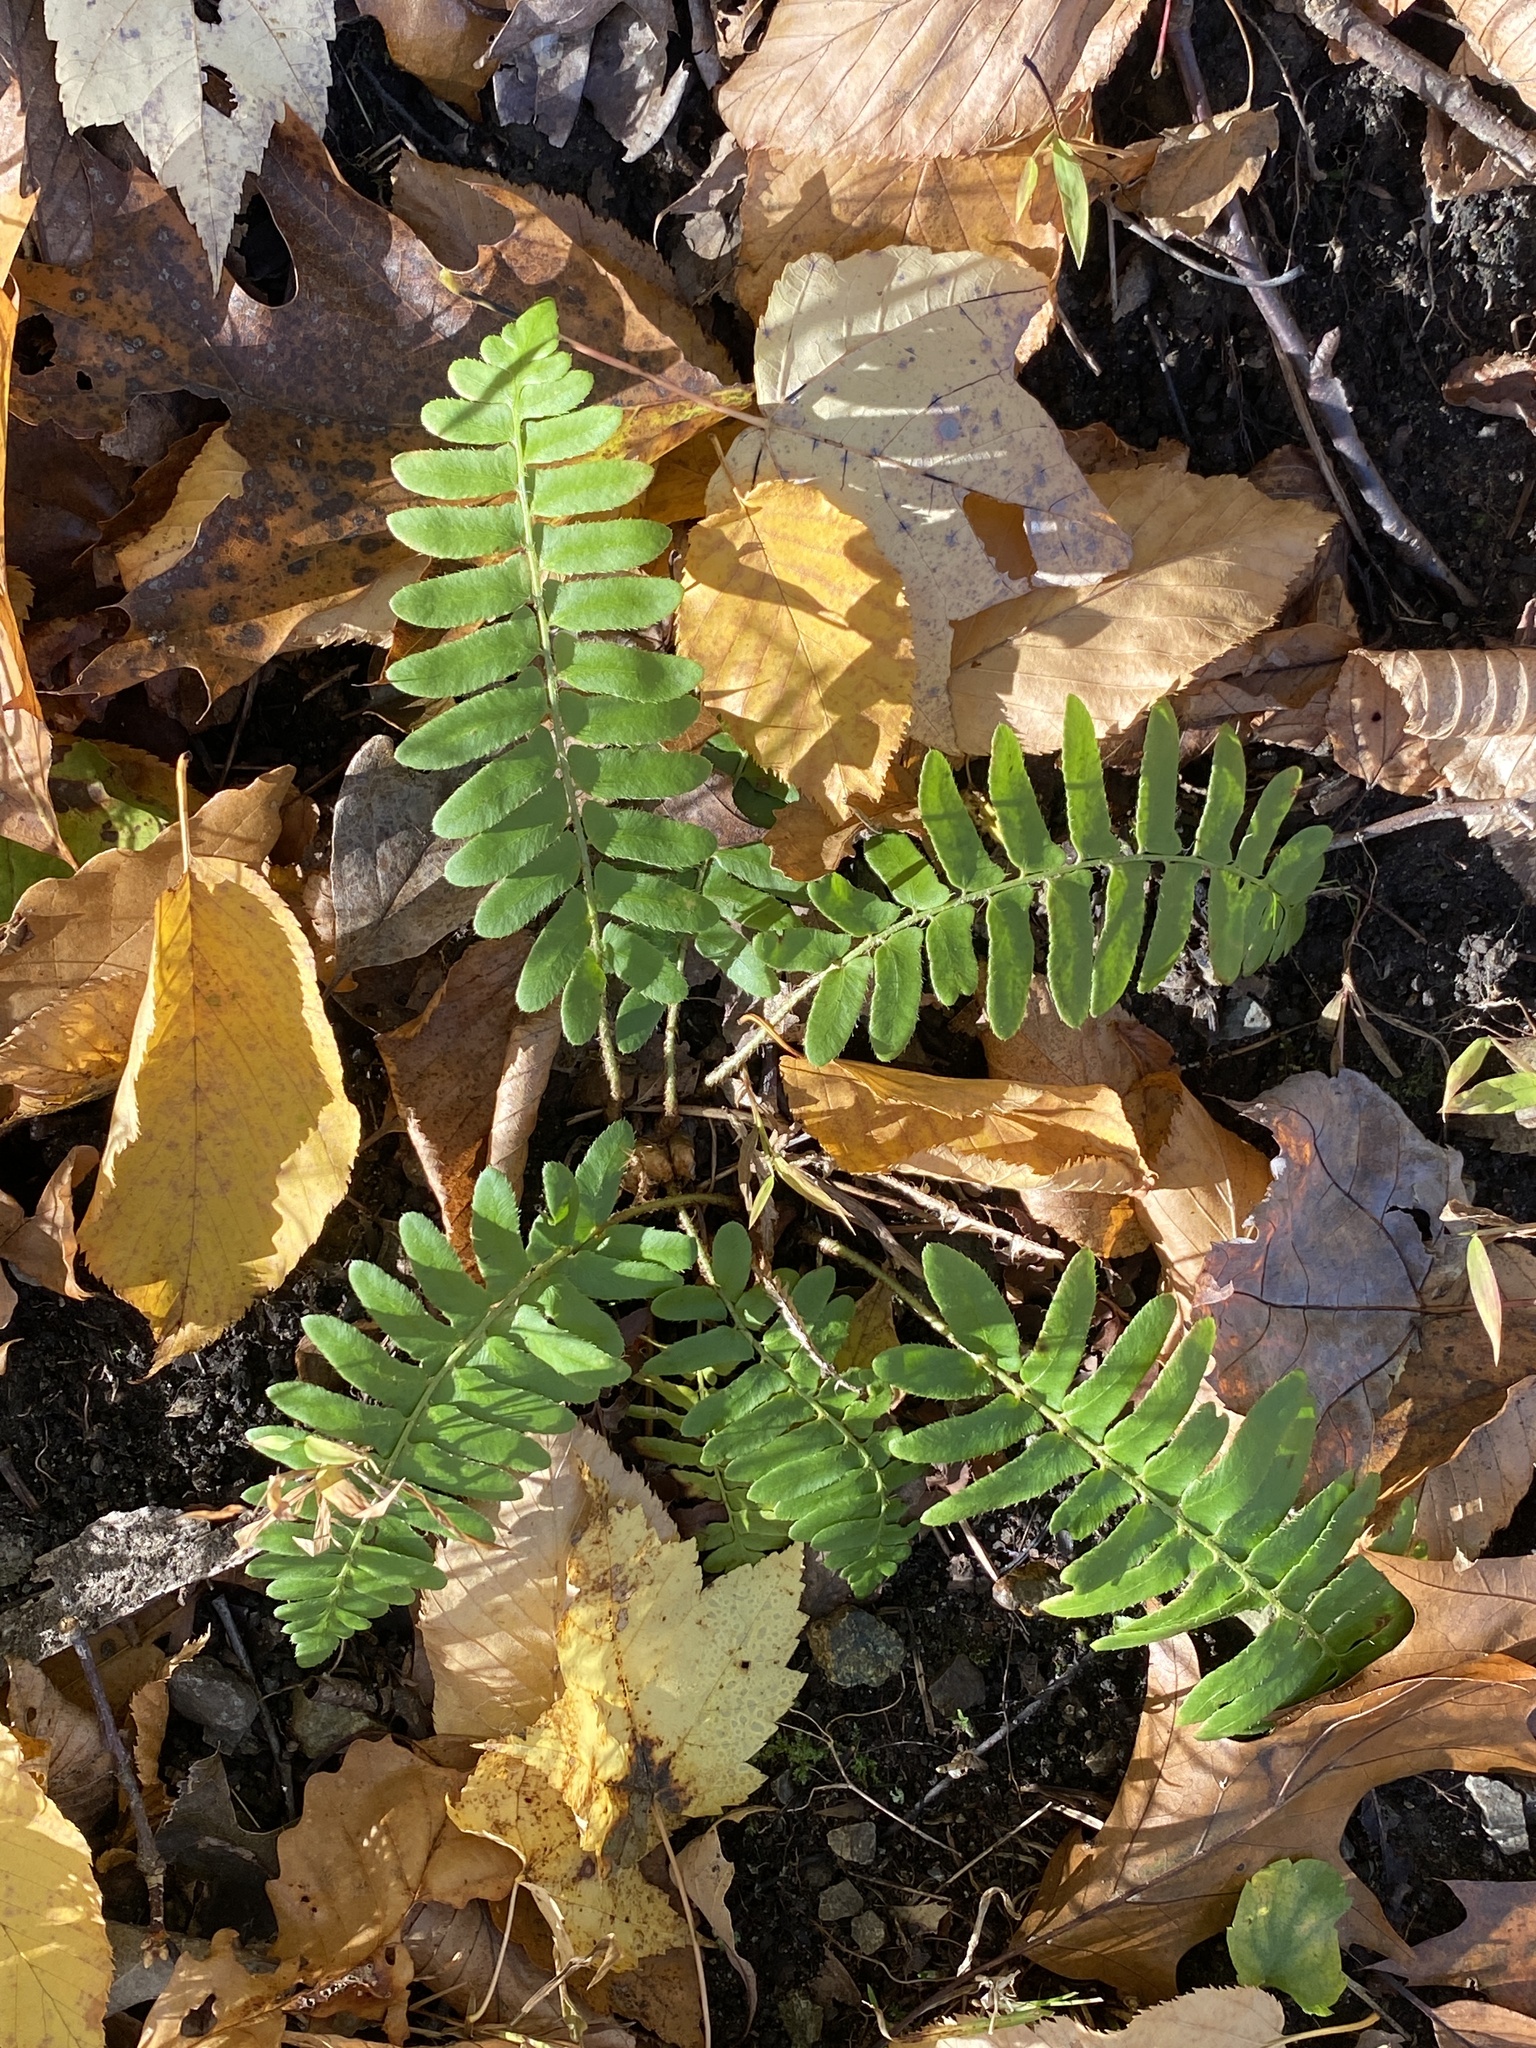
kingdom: Plantae
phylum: Tracheophyta
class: Polypodiopsida
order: Polypodiales
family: Dryopteridaceae
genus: Polystichum
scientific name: Polystichum acrostichoides
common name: Christmas fern
